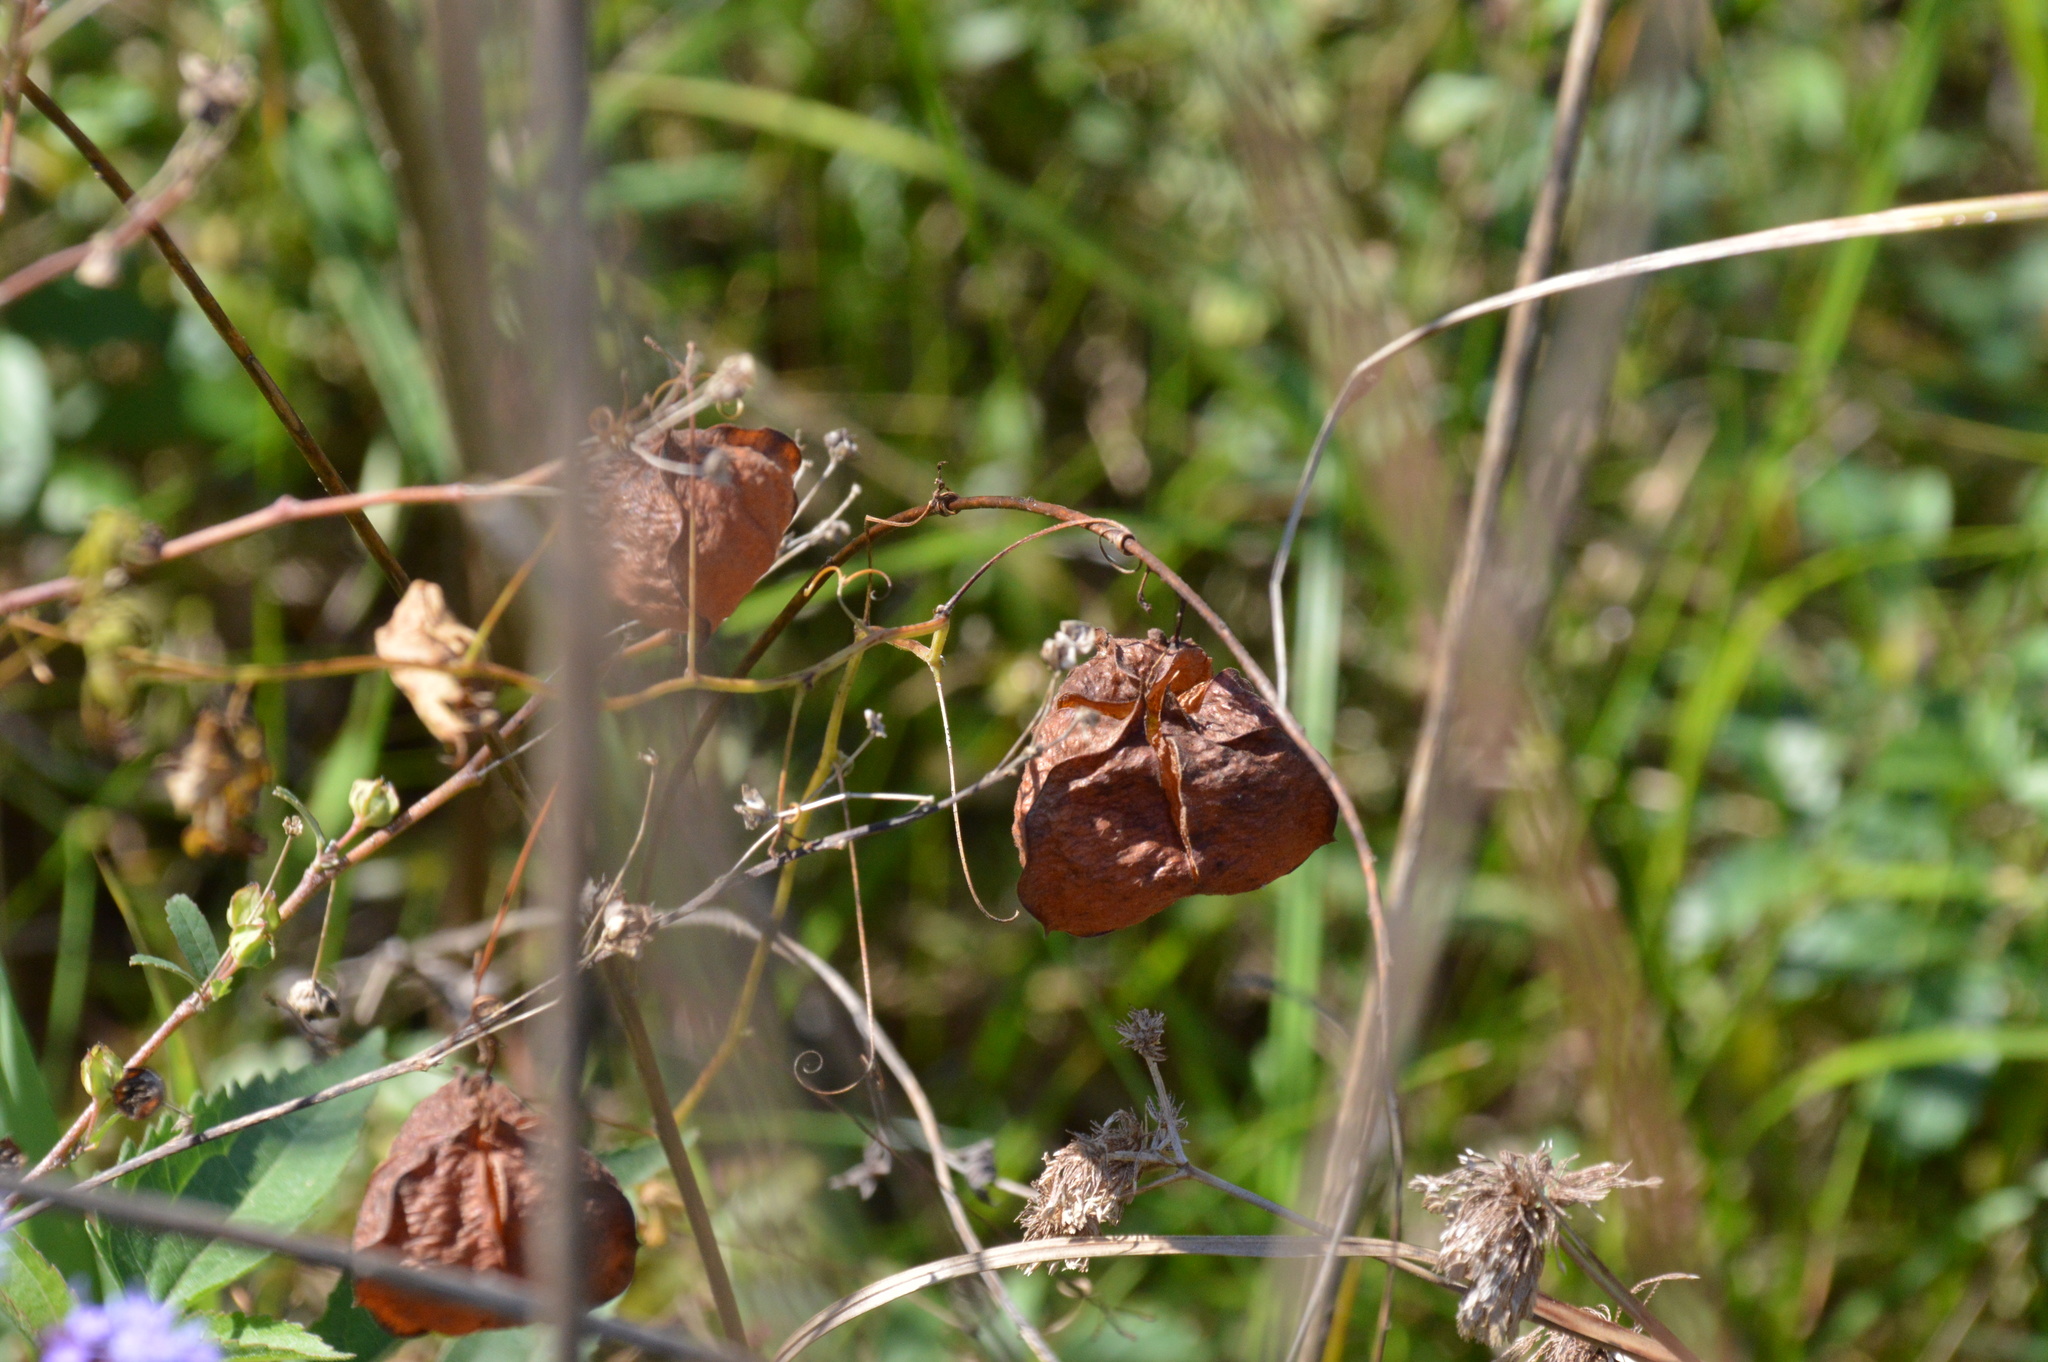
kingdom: Plantae
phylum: Tracheophyta
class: Magnoliopsida
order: Sapindales
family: Sapindaceae
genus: Cardiospermum
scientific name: Cardiospermum halicacabum
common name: Balloon vine
